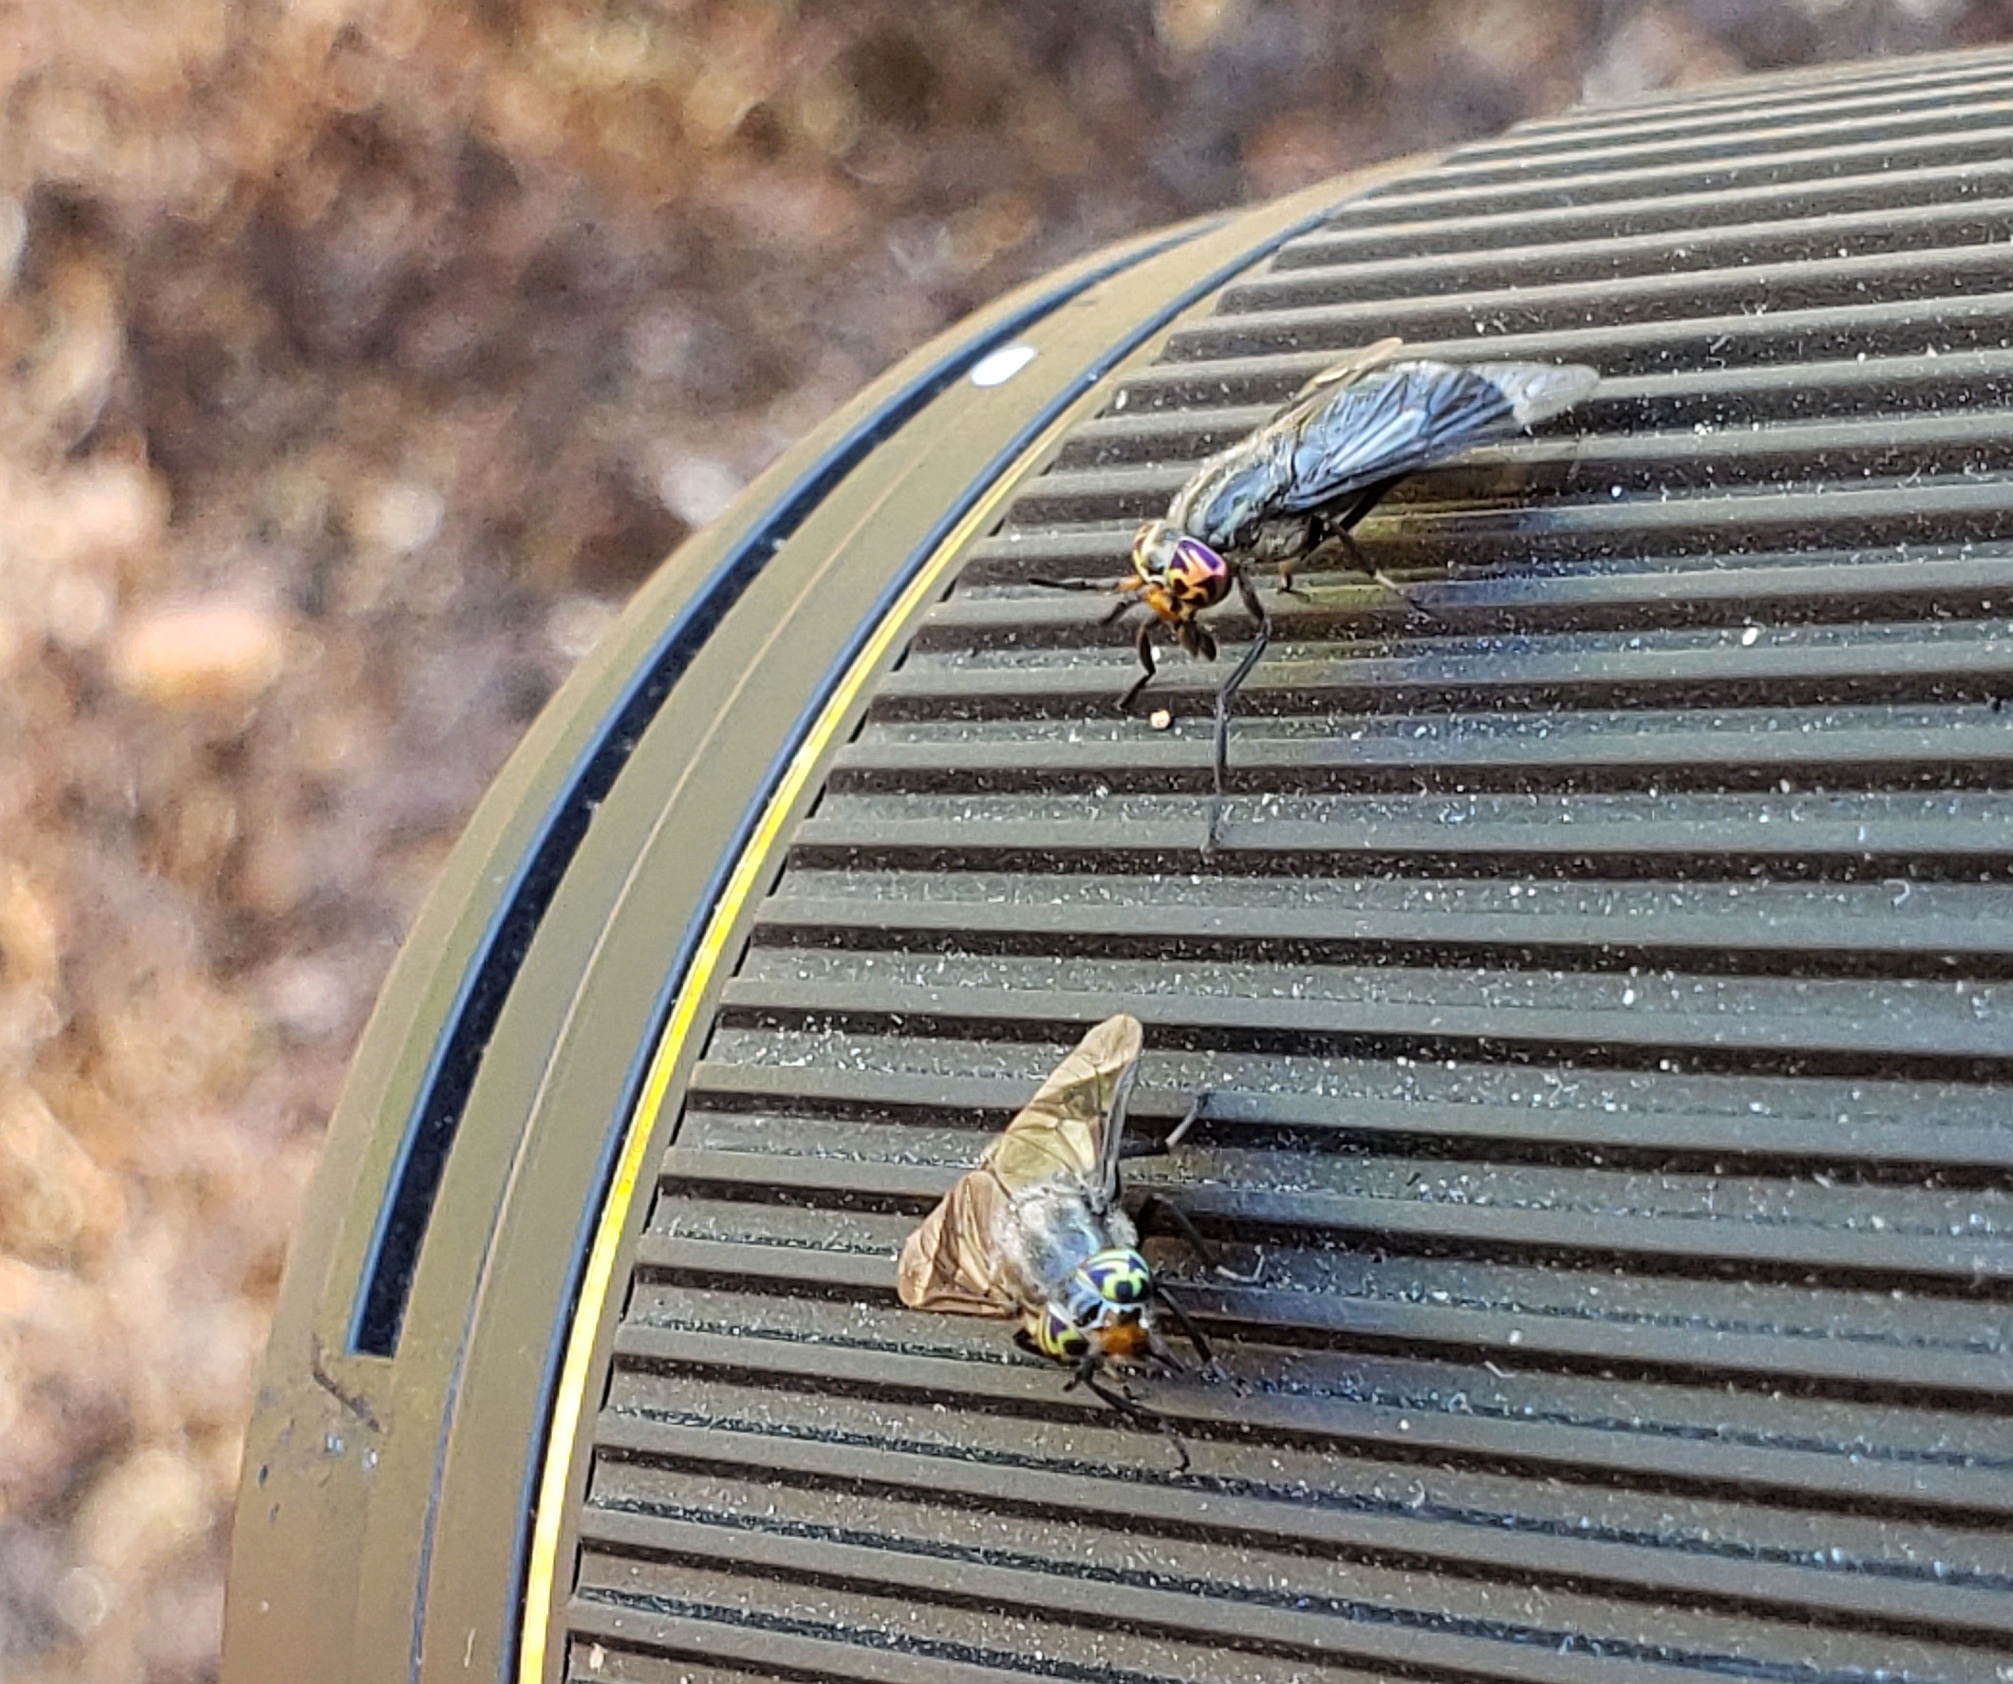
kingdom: Animalia
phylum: Arthropoda
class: Insecta
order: Diptera
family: Tabanidae
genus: Chrysops
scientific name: Chrysops niger
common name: Black deer fly
